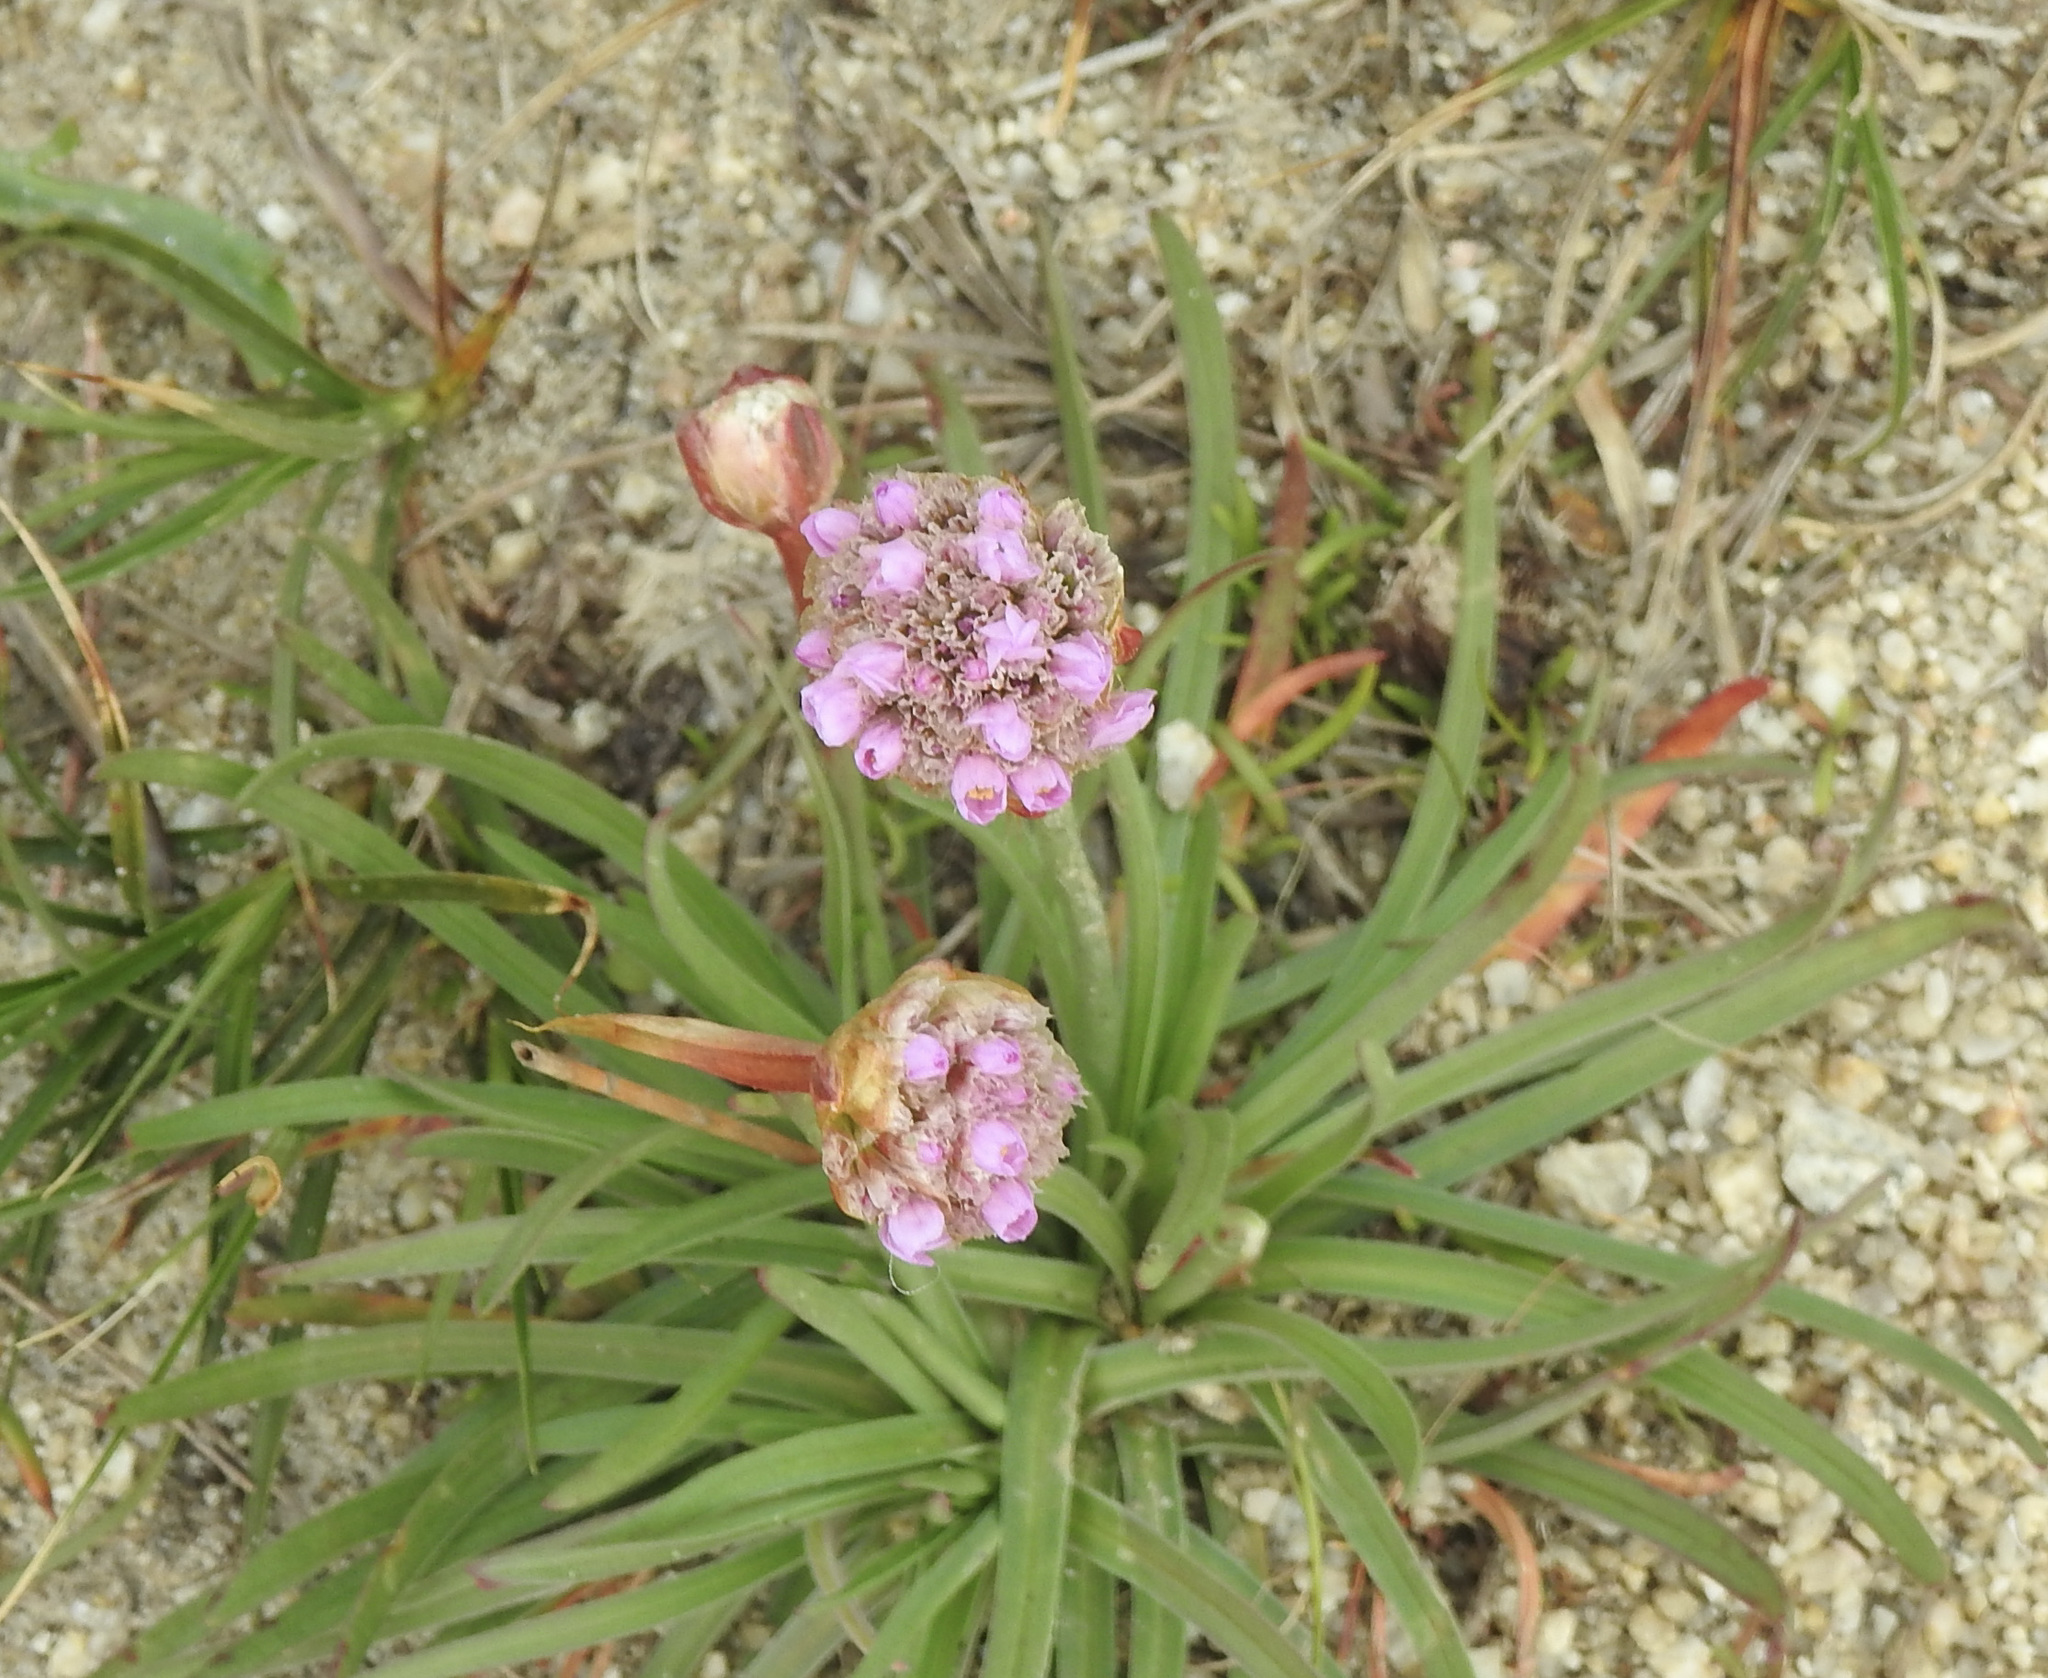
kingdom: Plantae
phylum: Tracheophyta
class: Magnoliopsida
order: Caryophyllales
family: Plumbaginaceae
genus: Armeria
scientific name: Armeria maritima
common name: Thrift
